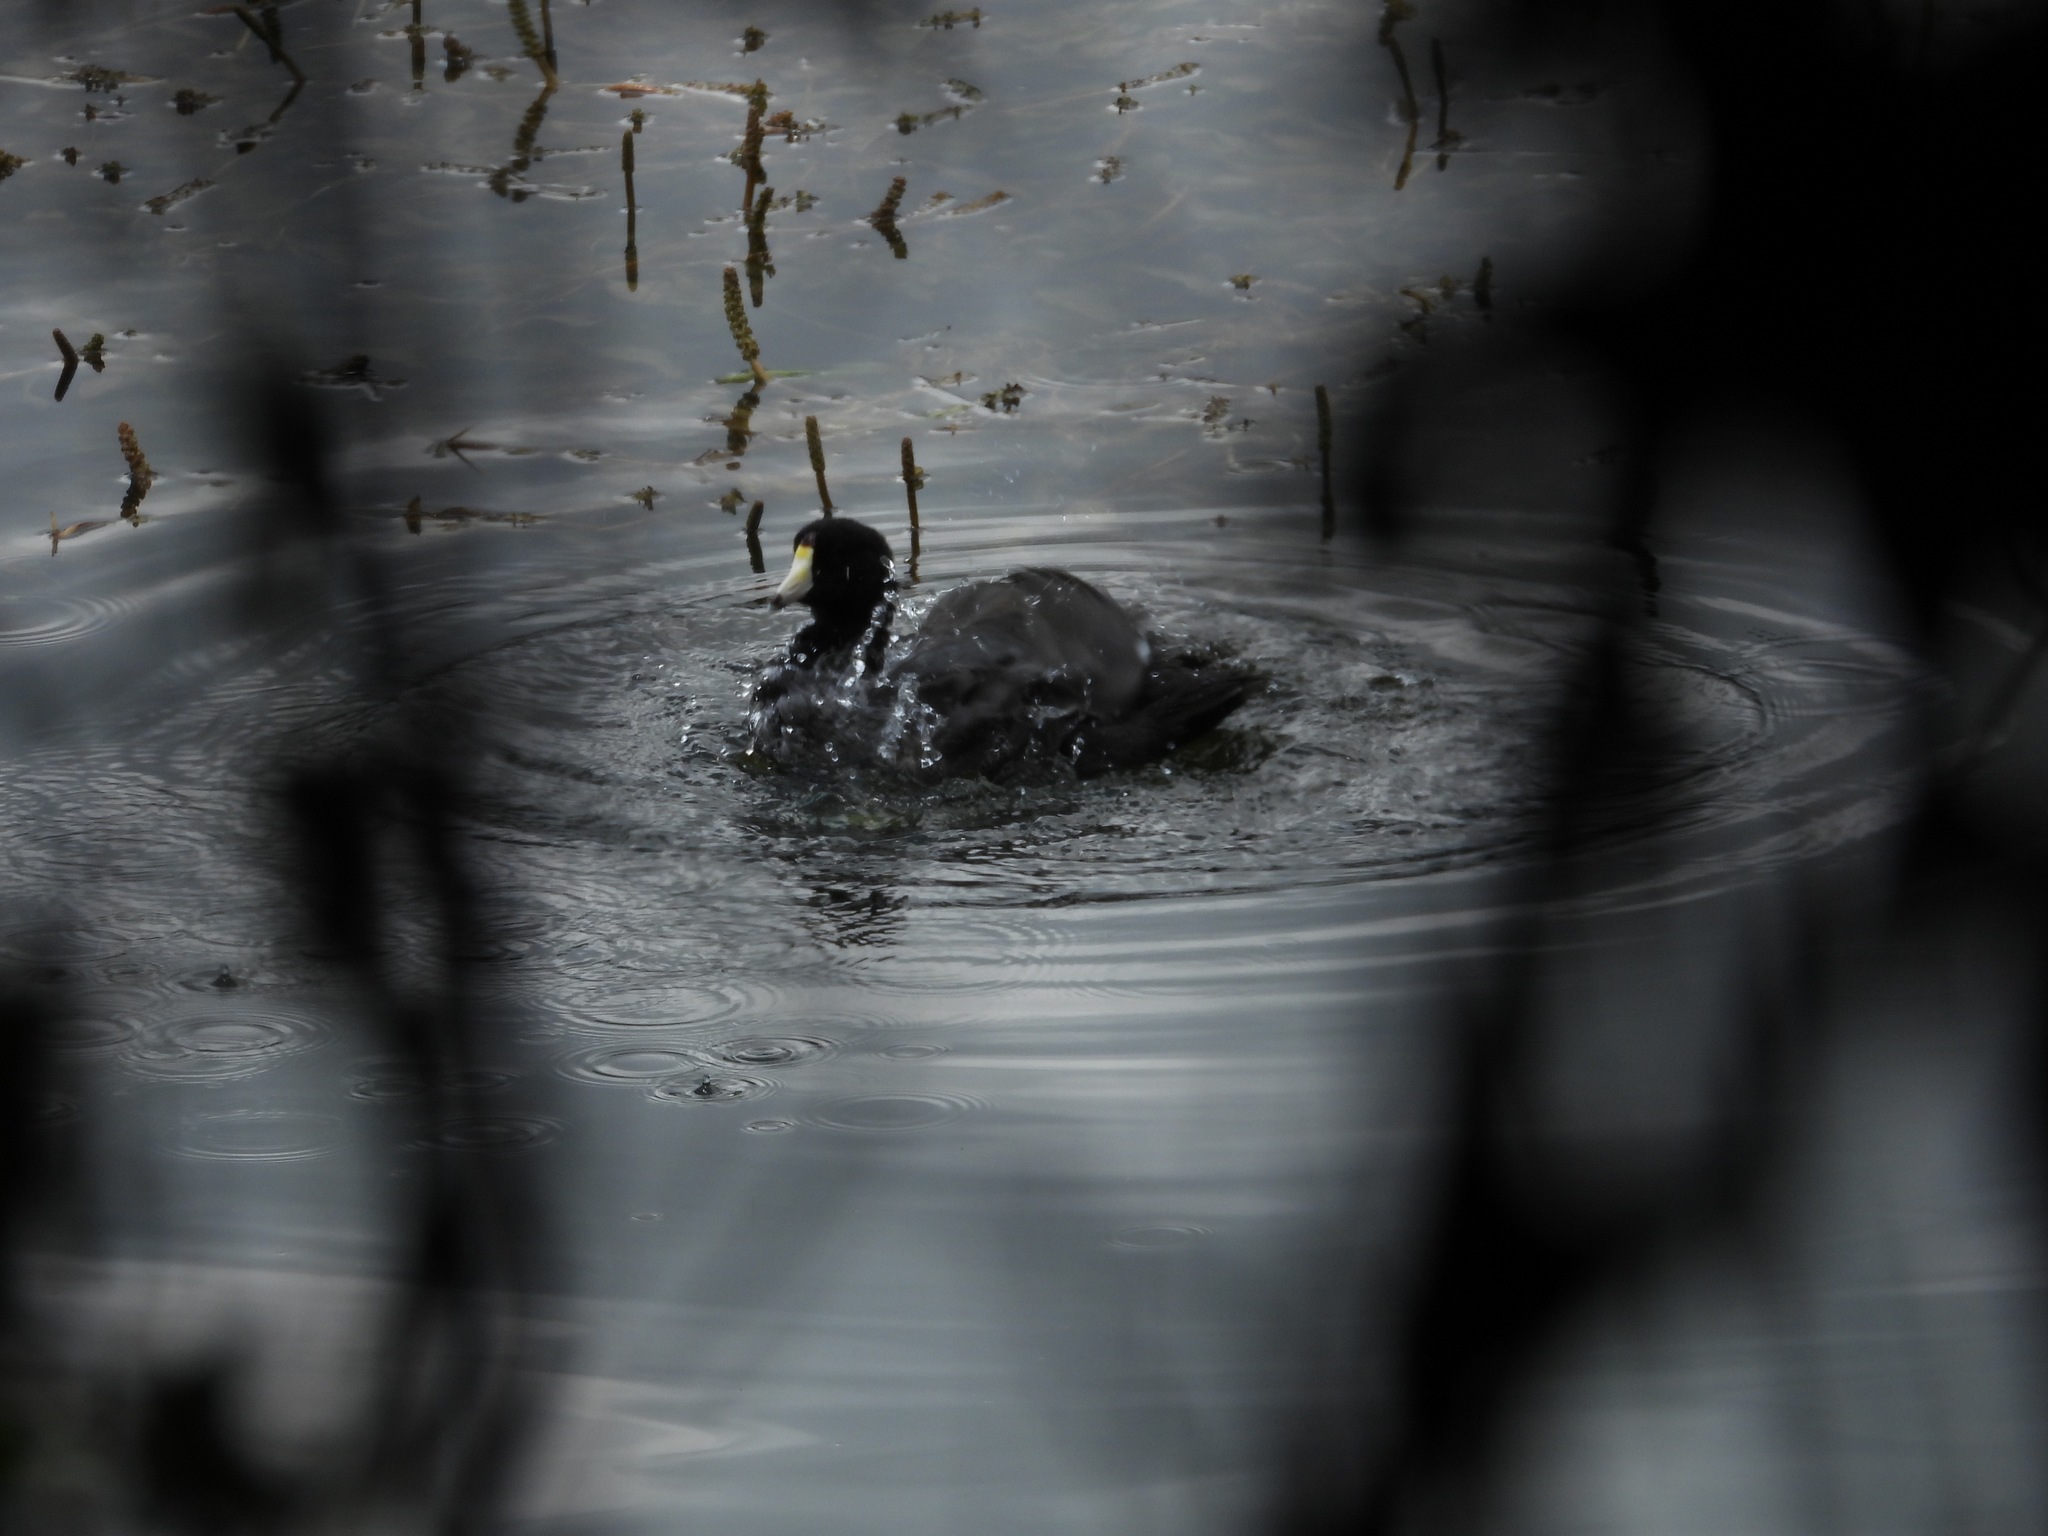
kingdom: Animalia
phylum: Chordata
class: Aves
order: Gruiformes
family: Rallidae
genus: Fulica
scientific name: Fulica americana
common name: American coot
